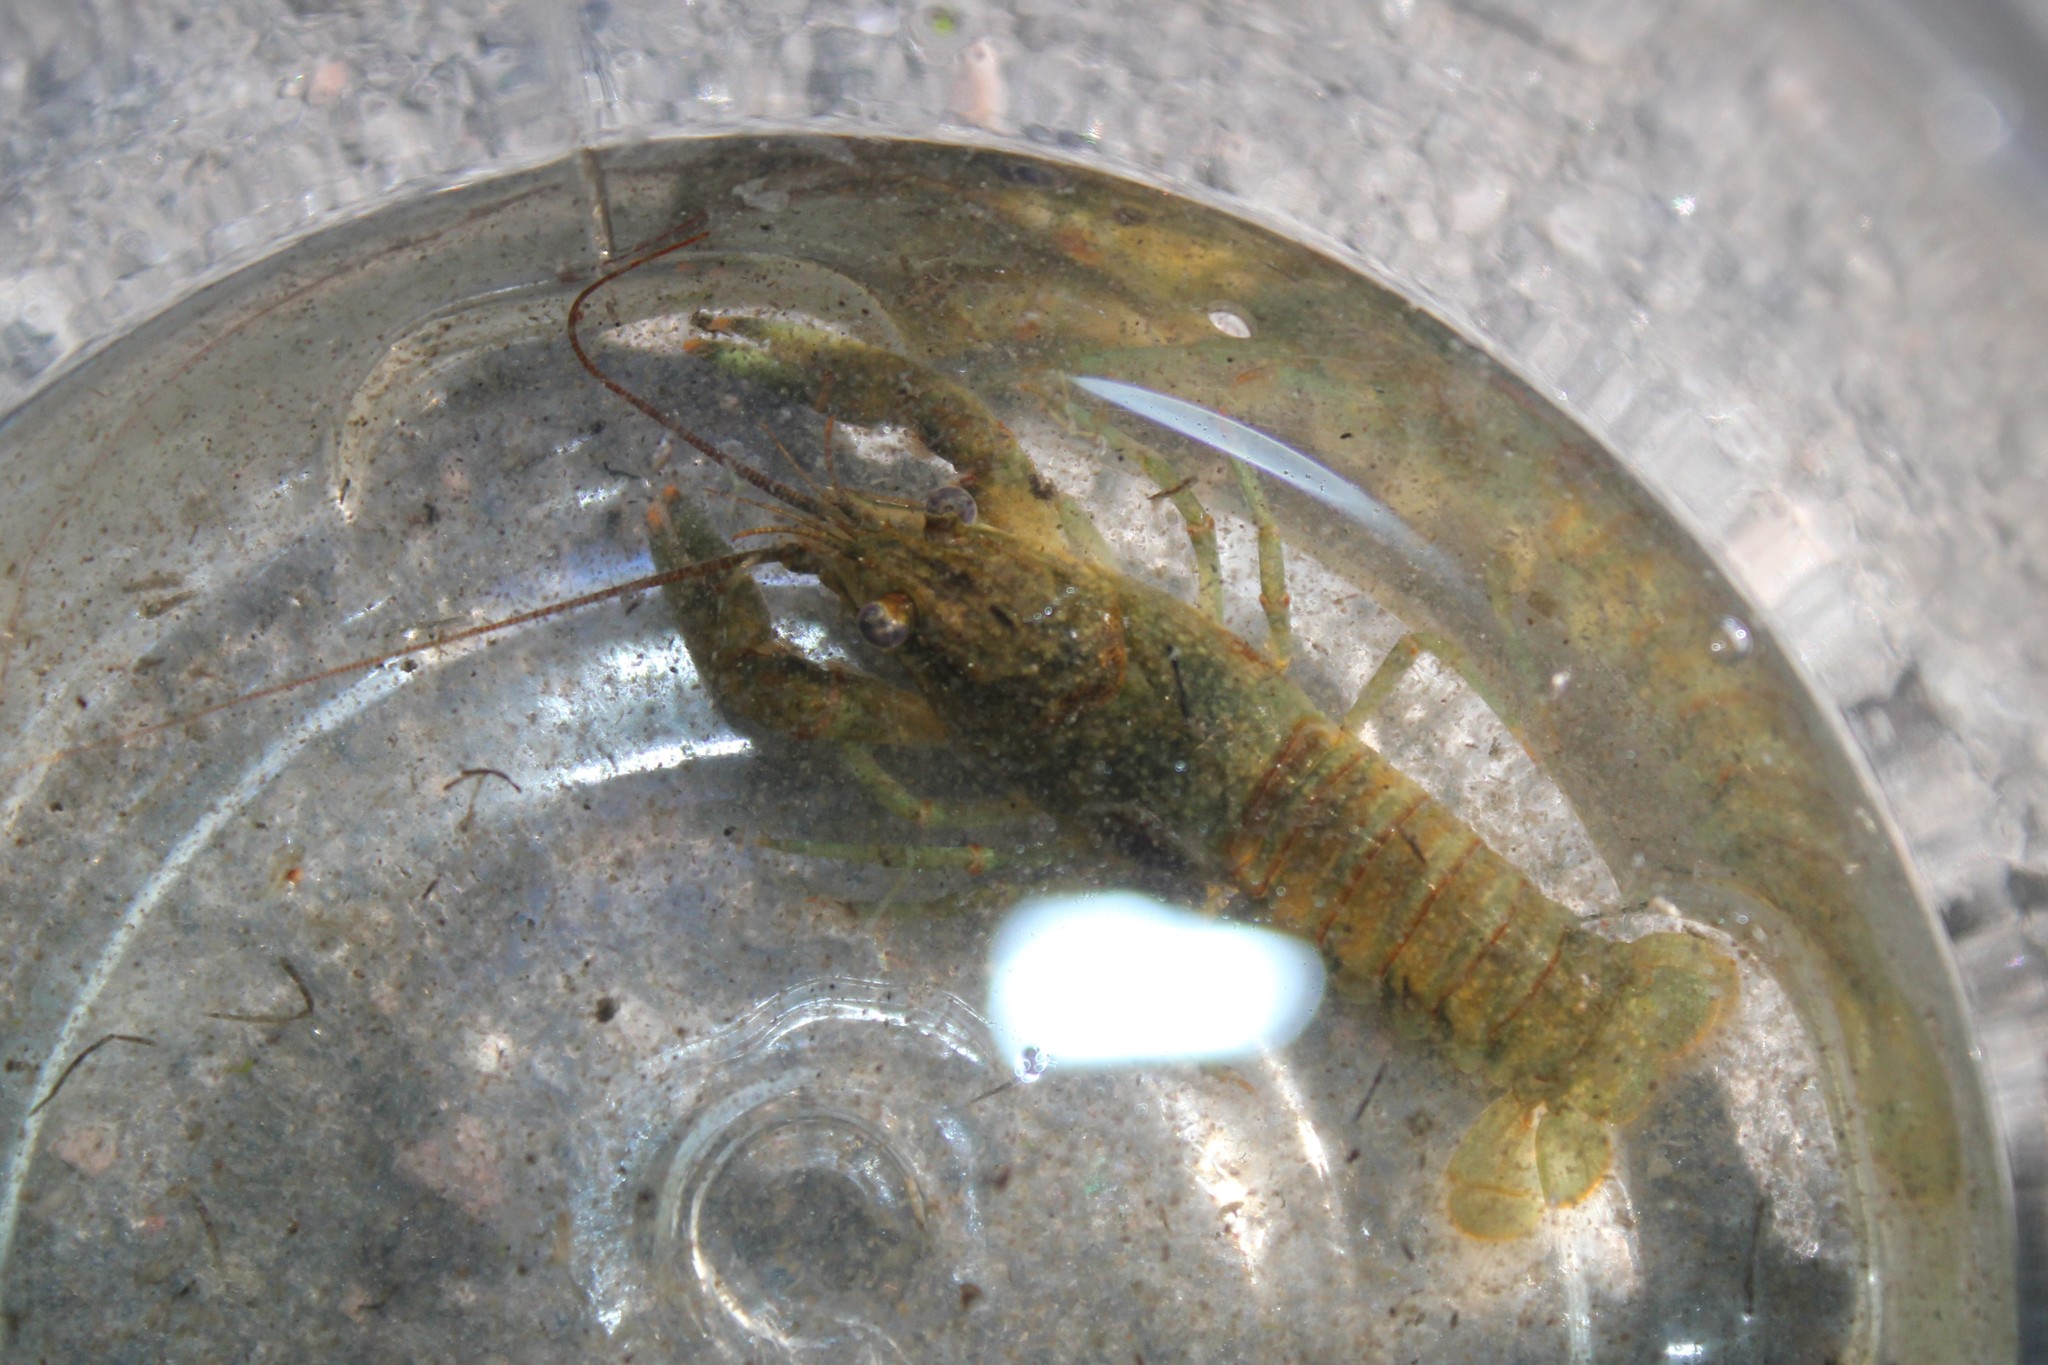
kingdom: Animalia
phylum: Arthropoda
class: Malacostraca
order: Decapoda
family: Cambaridae
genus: Faxonius
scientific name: Faxonius rusticus
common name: Rusty crayfish
